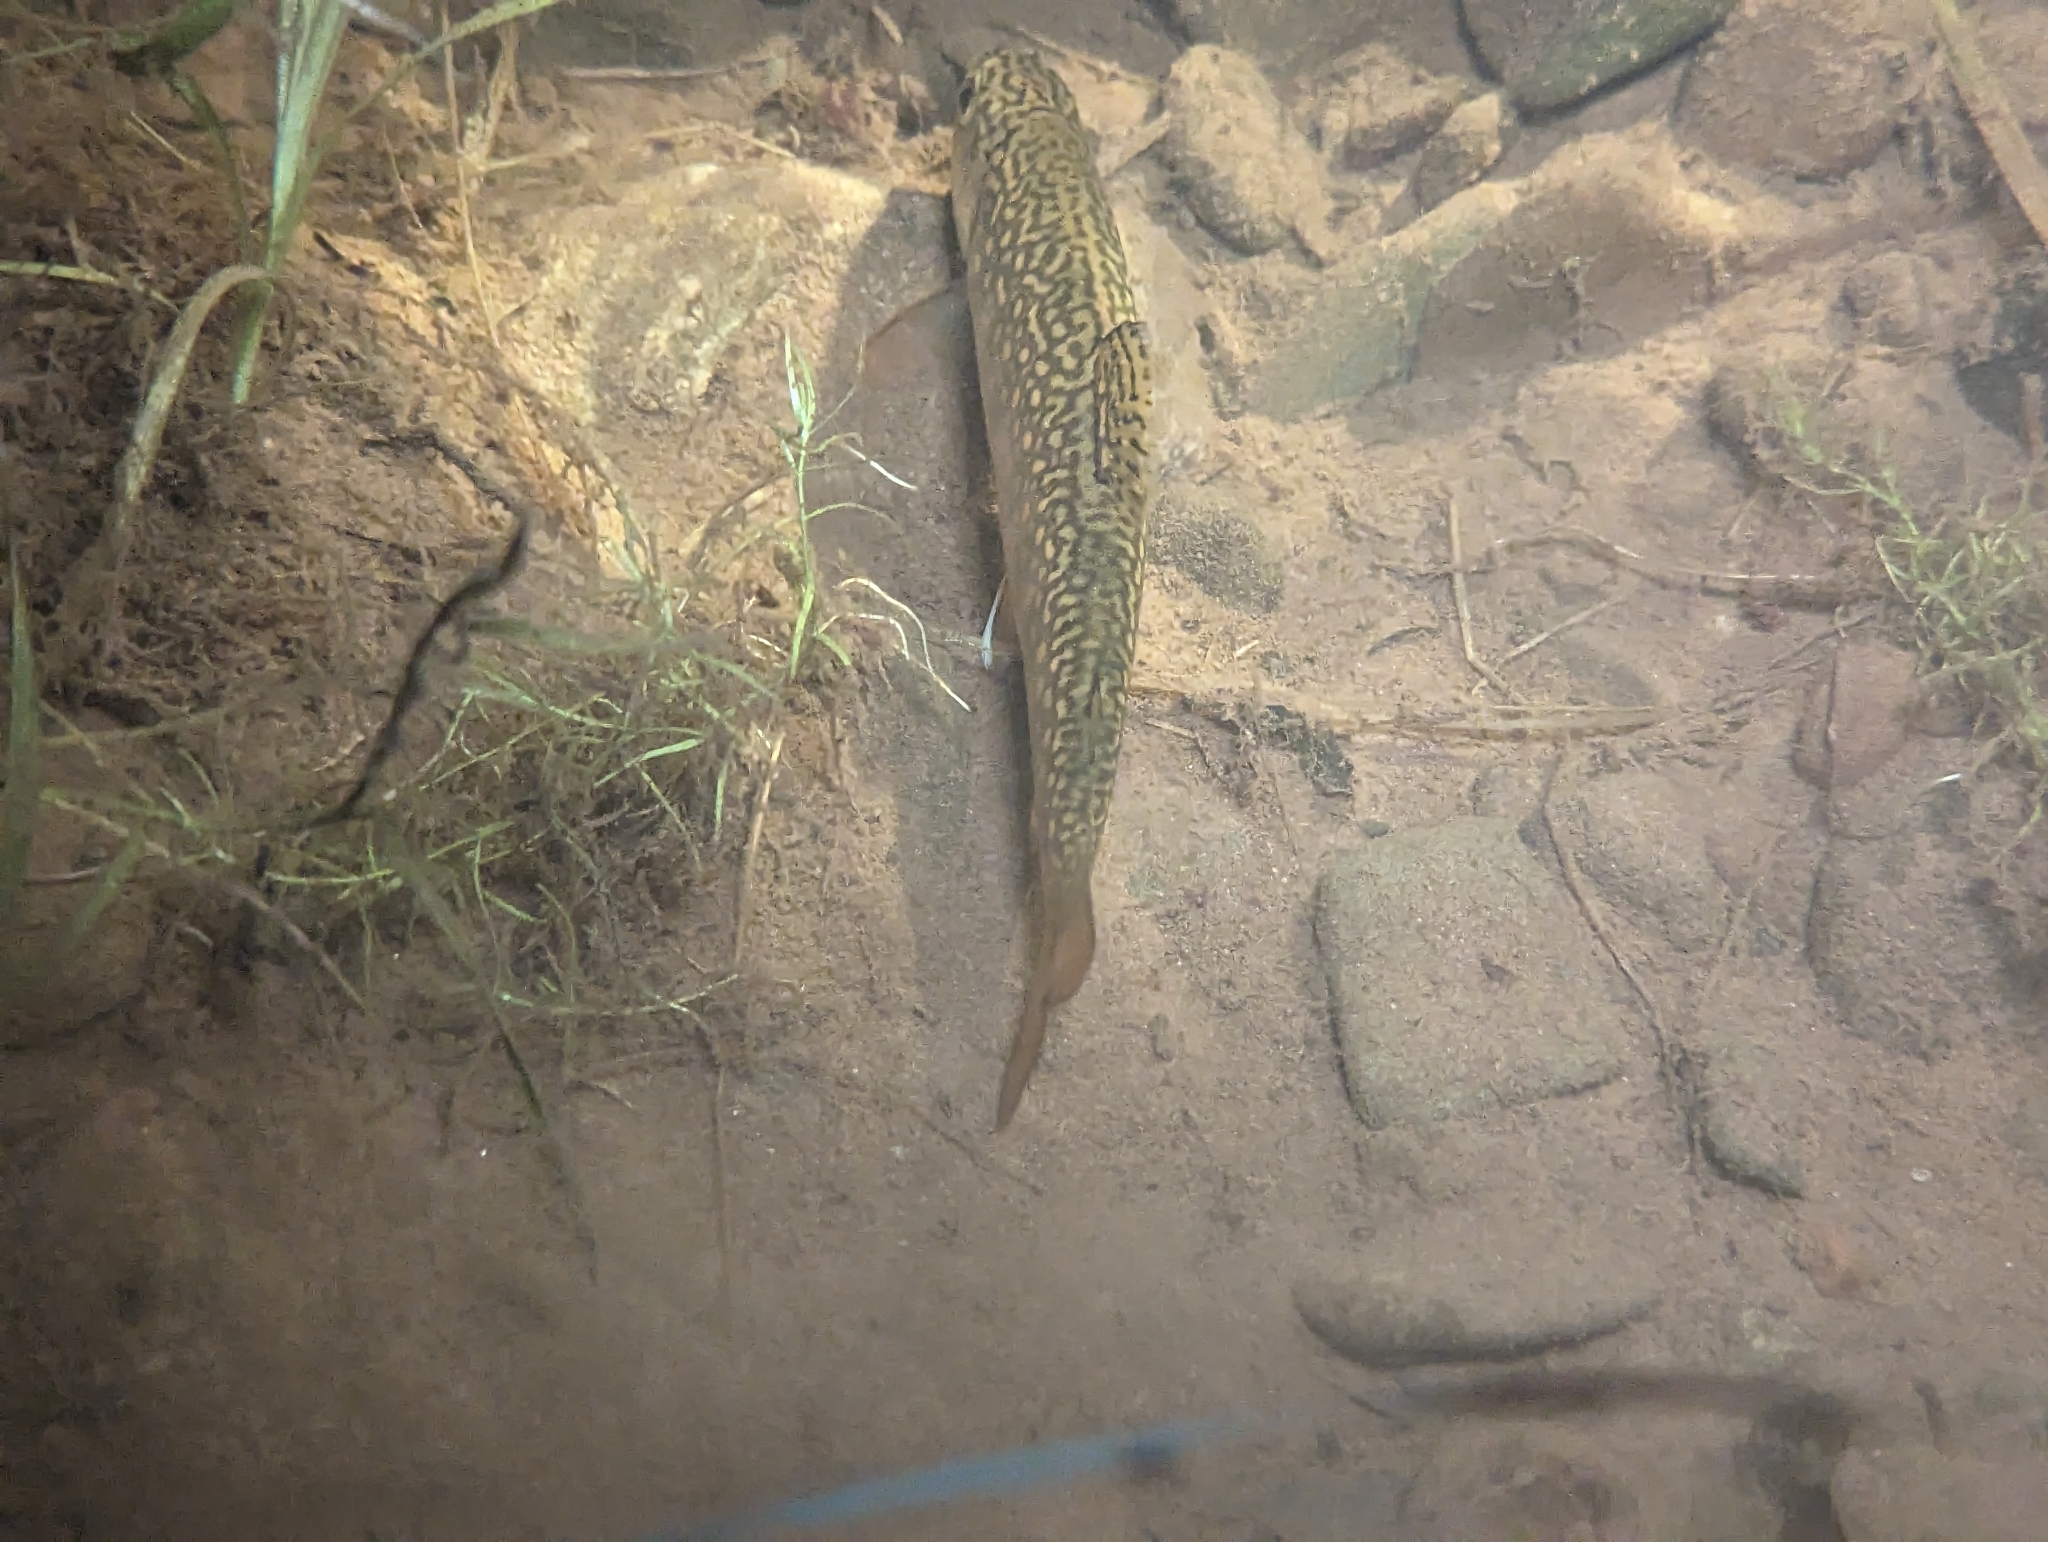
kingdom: Animalia
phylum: Chordata
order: Salmoniformes
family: Salmonidae
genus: Salvelinus
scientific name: Salvelinus fontinalis
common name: Brook trout
